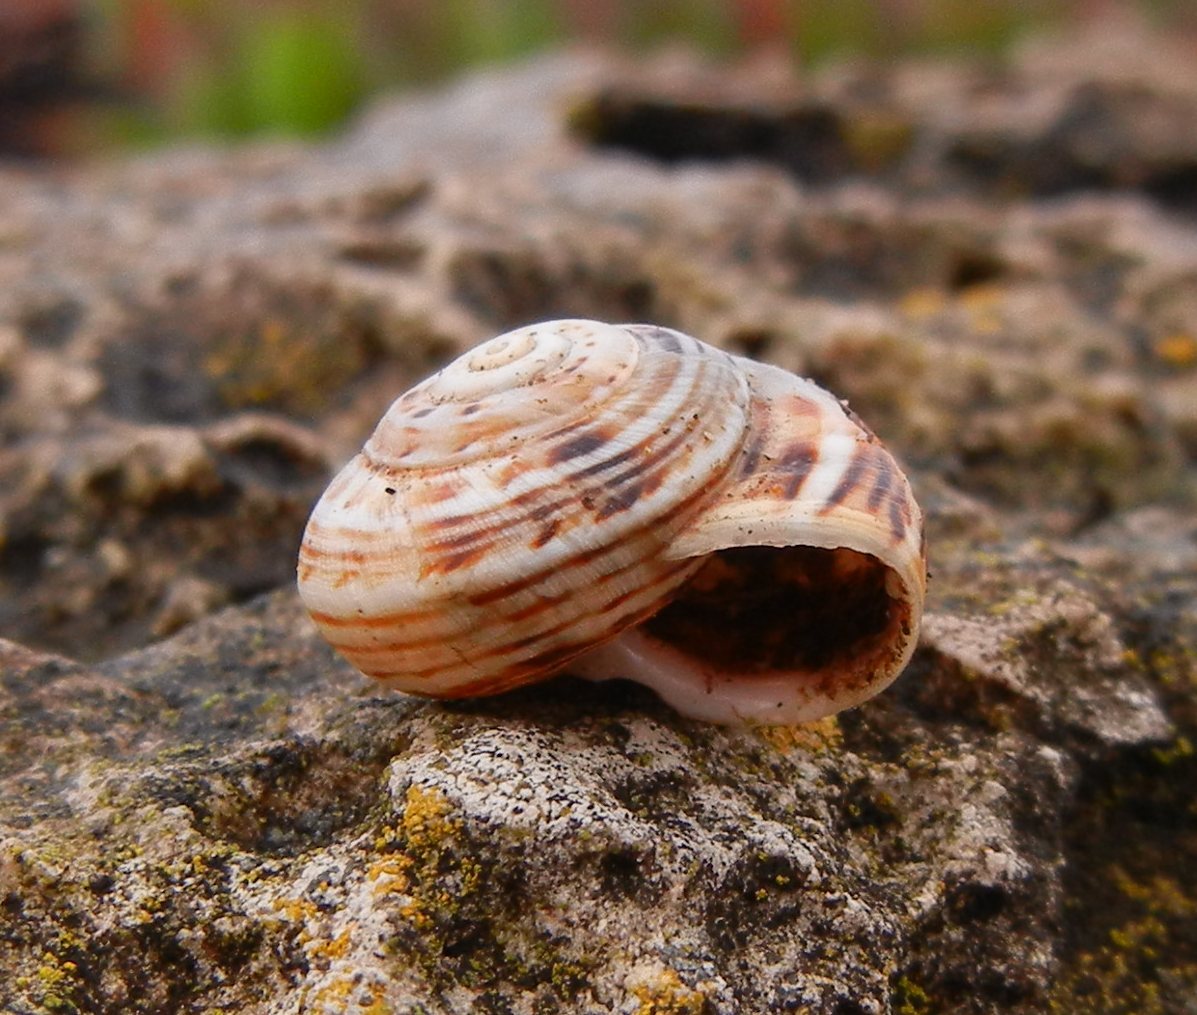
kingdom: Animalia
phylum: Mollusca
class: Gastropoda
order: Stylommatophora
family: Helicidae
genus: Theba
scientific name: Theba pisana
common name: White snail
